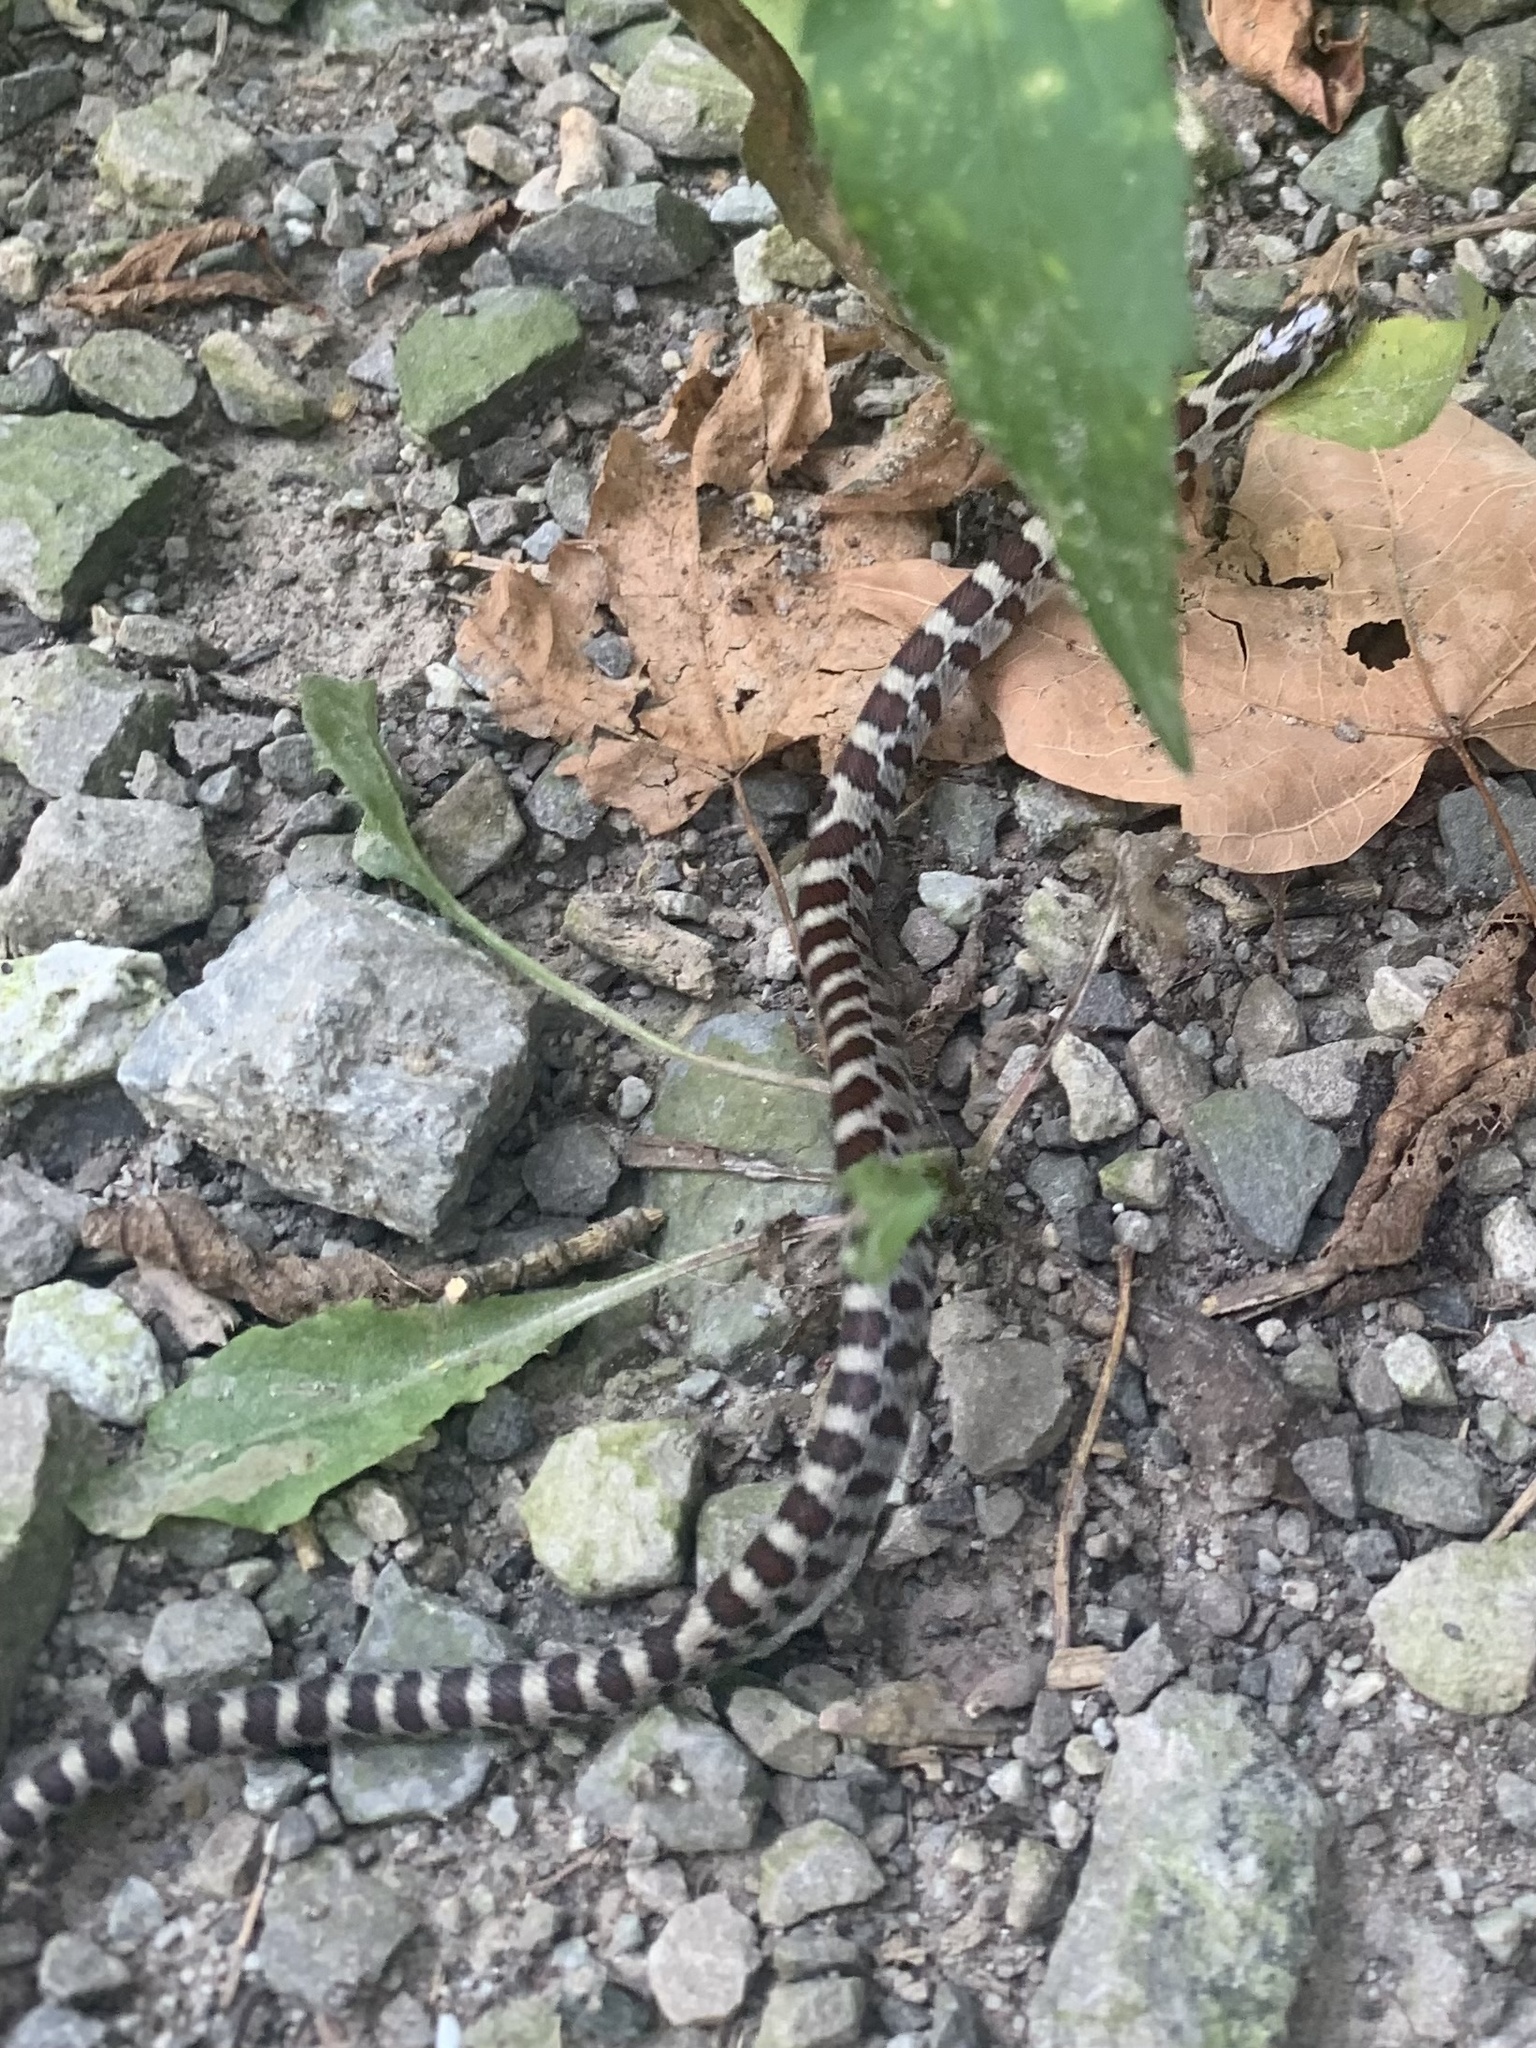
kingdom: Animalia
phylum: Chordata
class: Squamata
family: Colubridae
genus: Lampropeltis
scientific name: Lampropeltis triangulum
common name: Eastern milksnake
